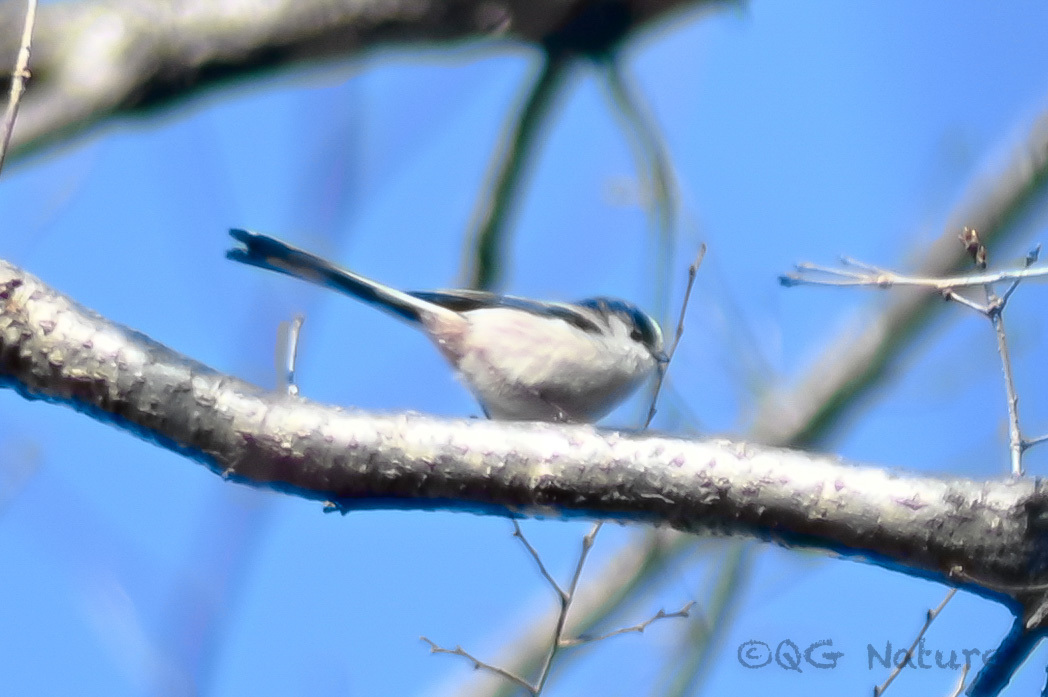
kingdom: Animalia
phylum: Chordata
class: Aves
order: Passeriformes
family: Aegithalidae
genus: Aegithalos
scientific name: Aegithalos caudatus
